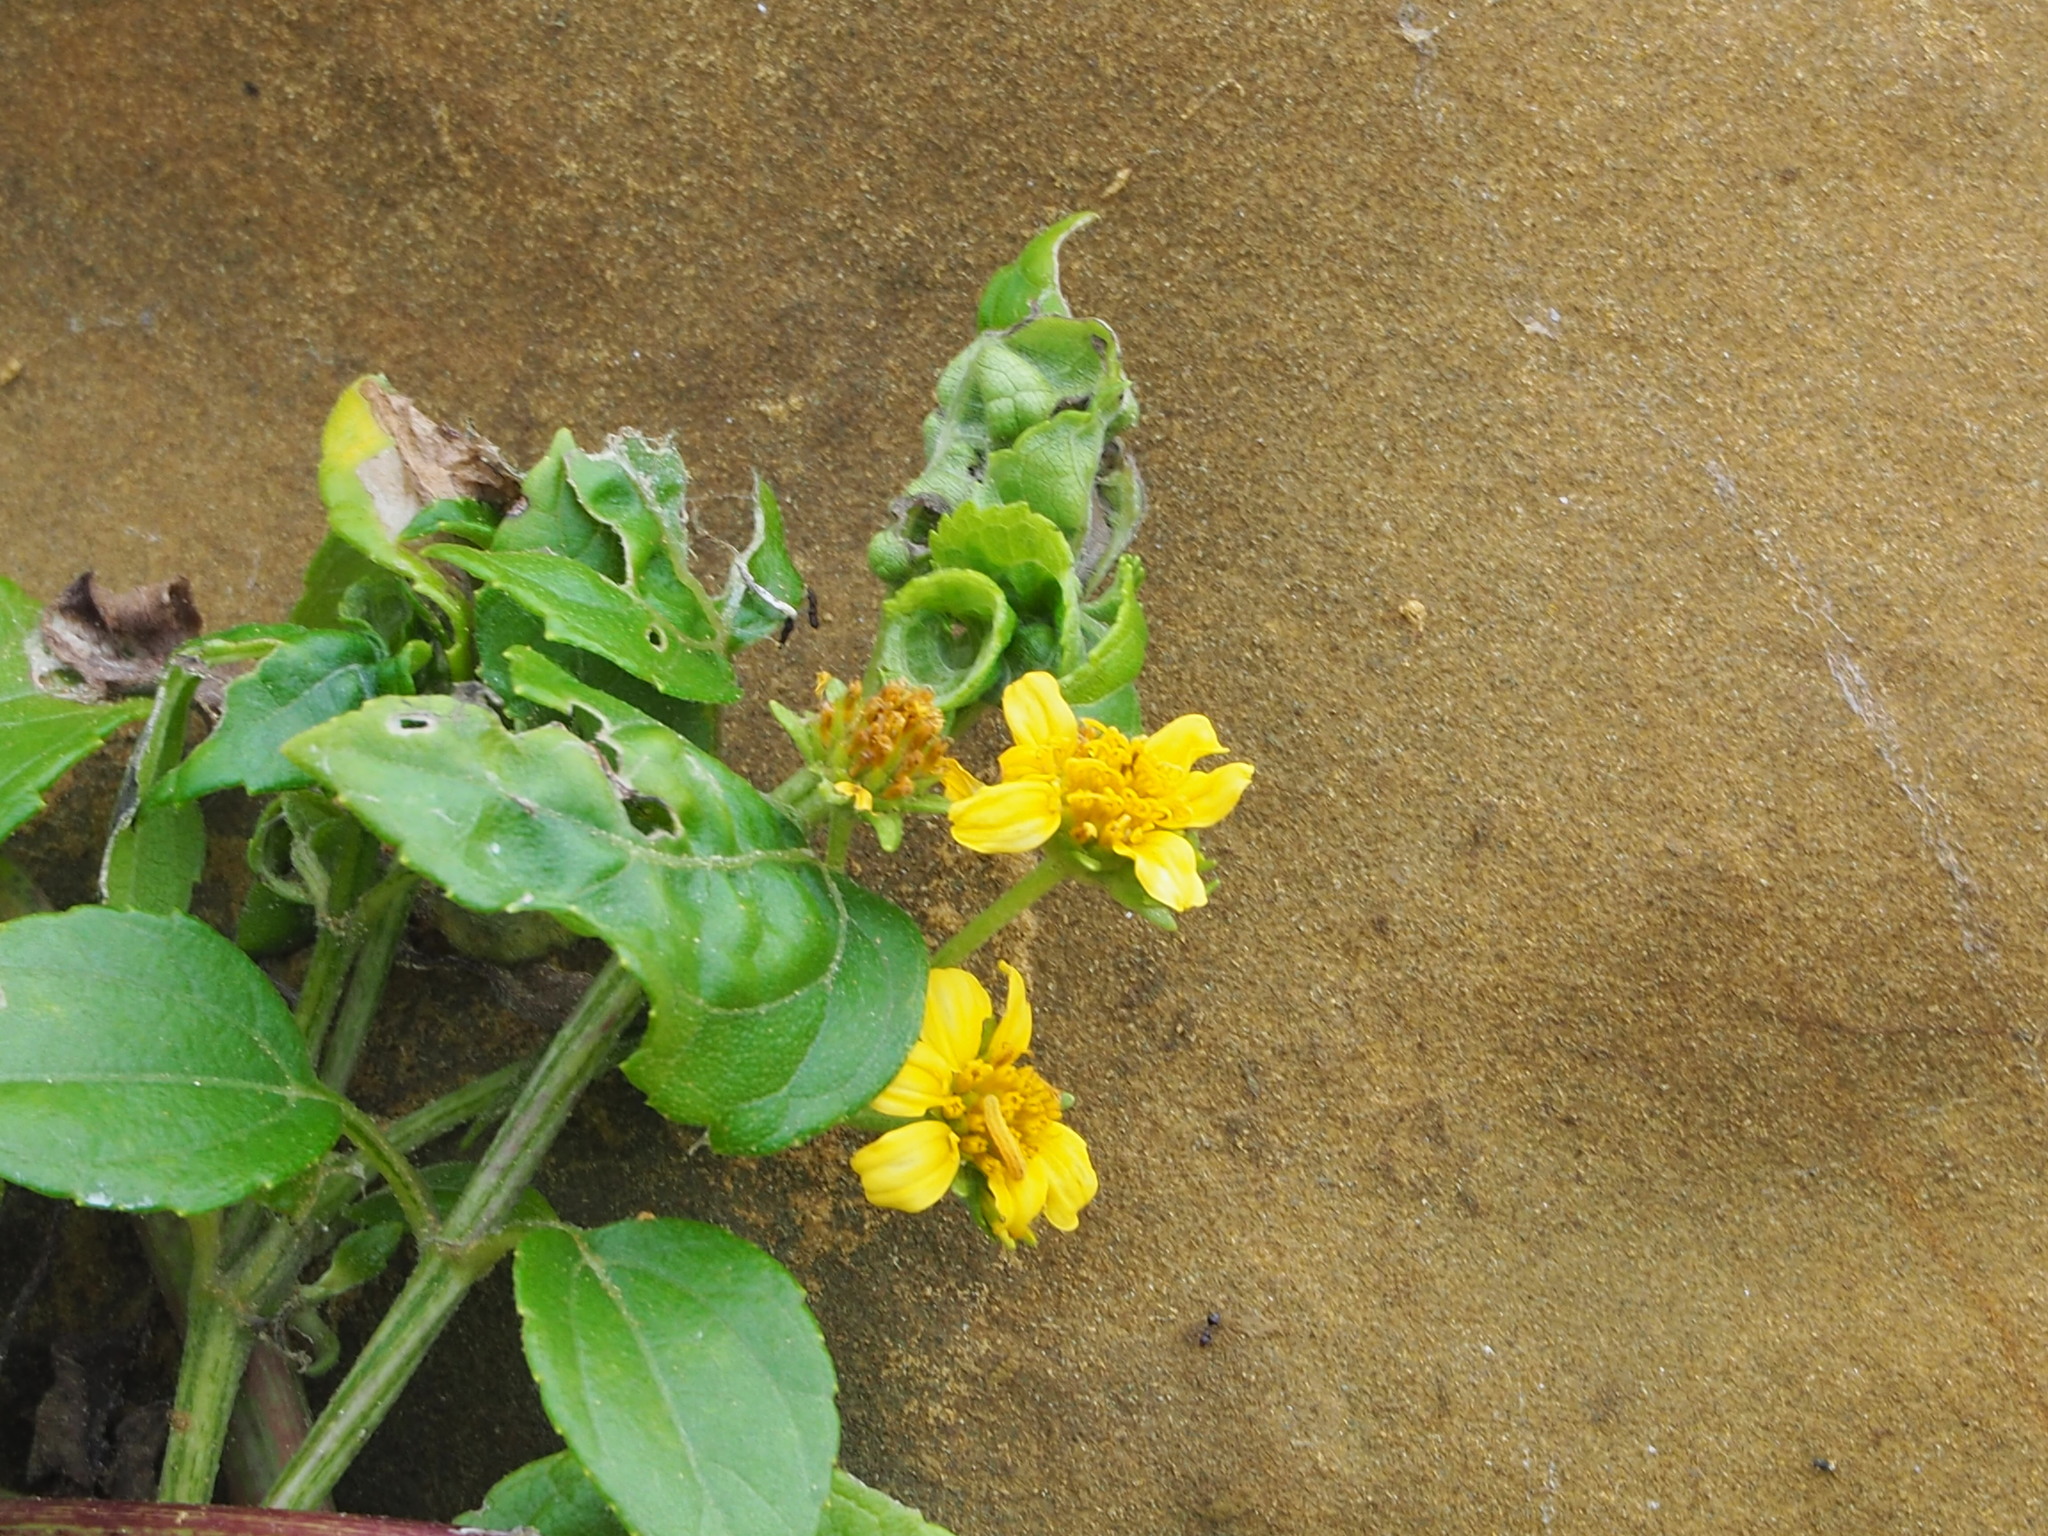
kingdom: Plantae
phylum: Tracheophyta
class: Magnoliopsida
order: Asterales
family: Asteraceae
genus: Wollastonia
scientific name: Wollastonia biflora
